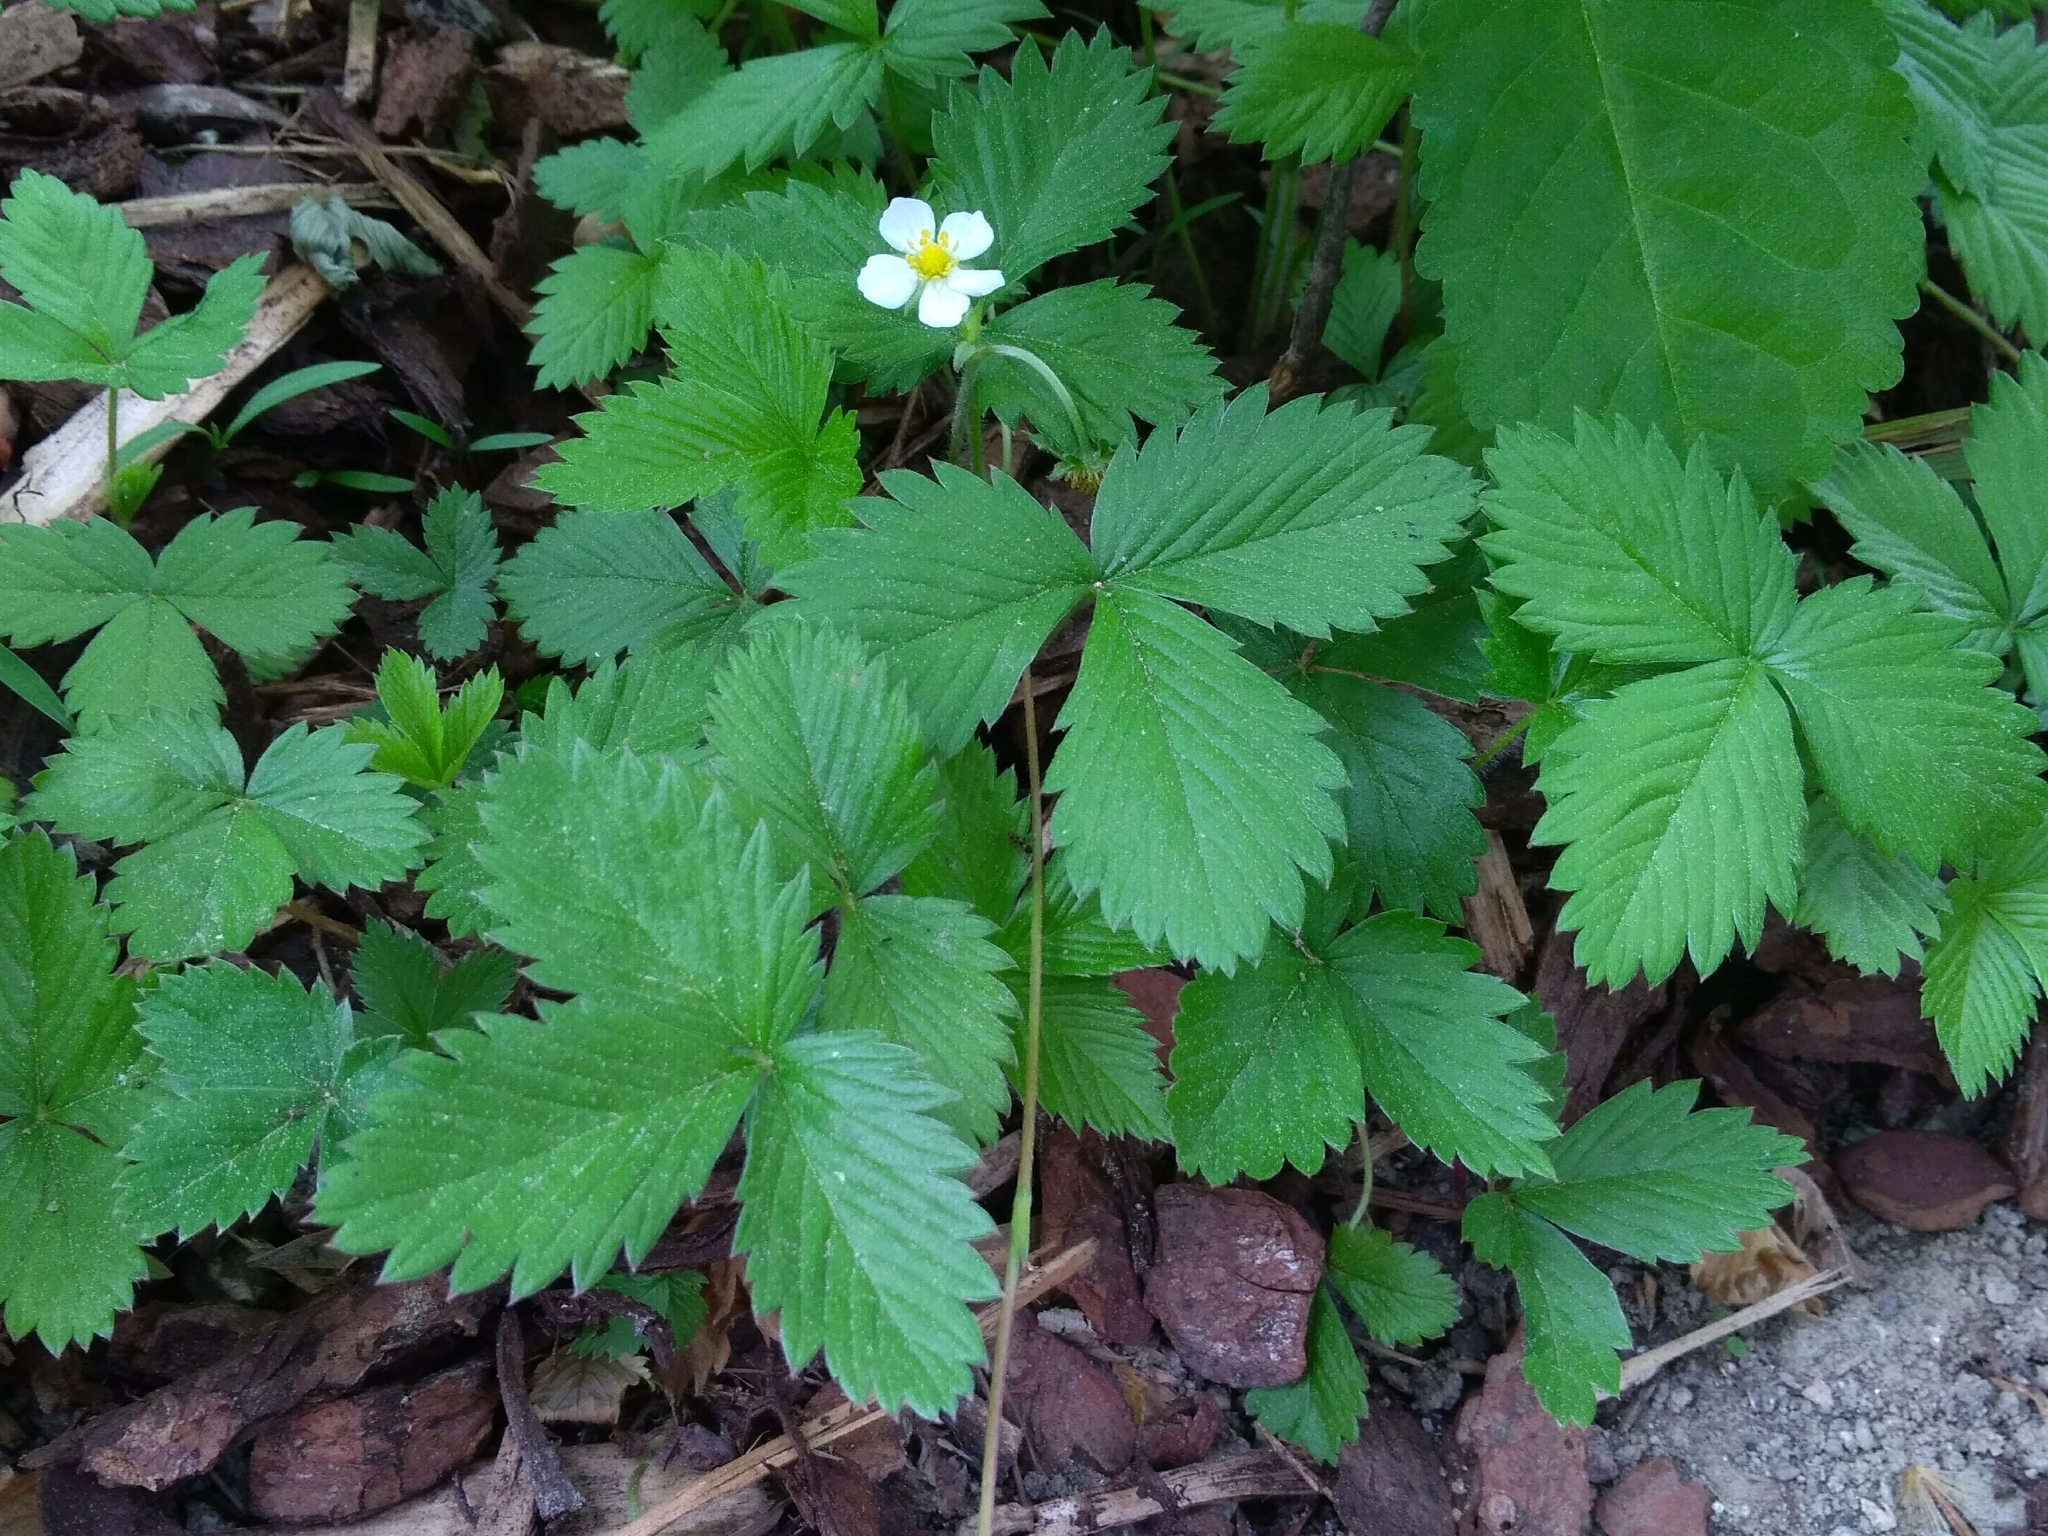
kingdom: Plantae
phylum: Tracheophyta
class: Magnoliopsida
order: Rosales
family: Rosaceae
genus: Fragaria
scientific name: Fragaria vesca
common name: Wild strawberry
